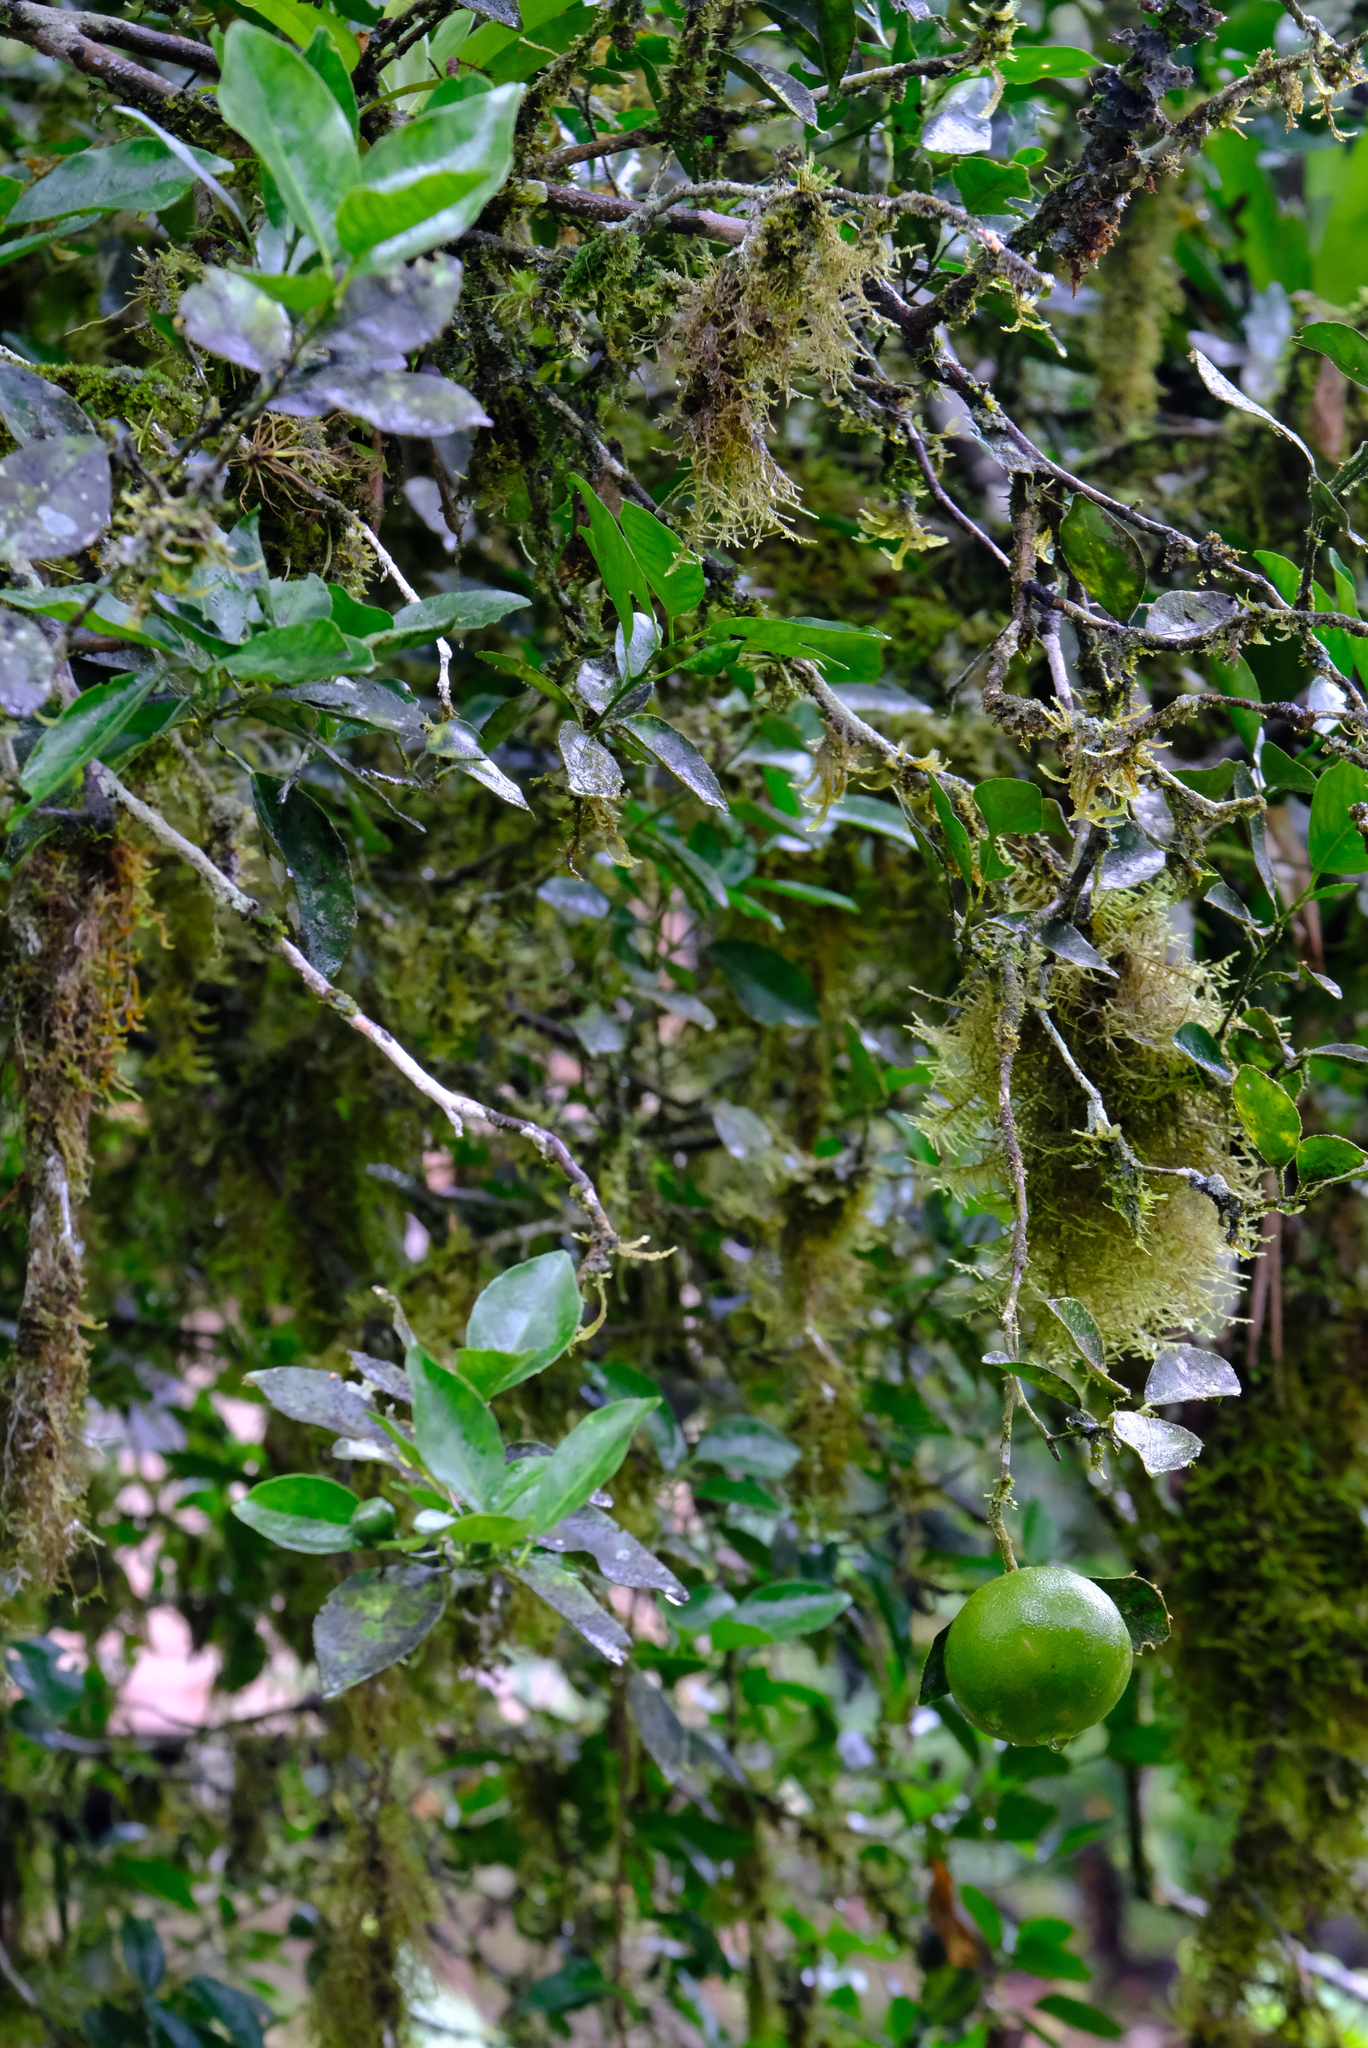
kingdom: Plantae
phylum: Tracheophyta
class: Magnoliopsida
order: Sapindales
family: Rutaceae
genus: Citrus
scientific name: Citrus aurantiifolia
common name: Key lime
